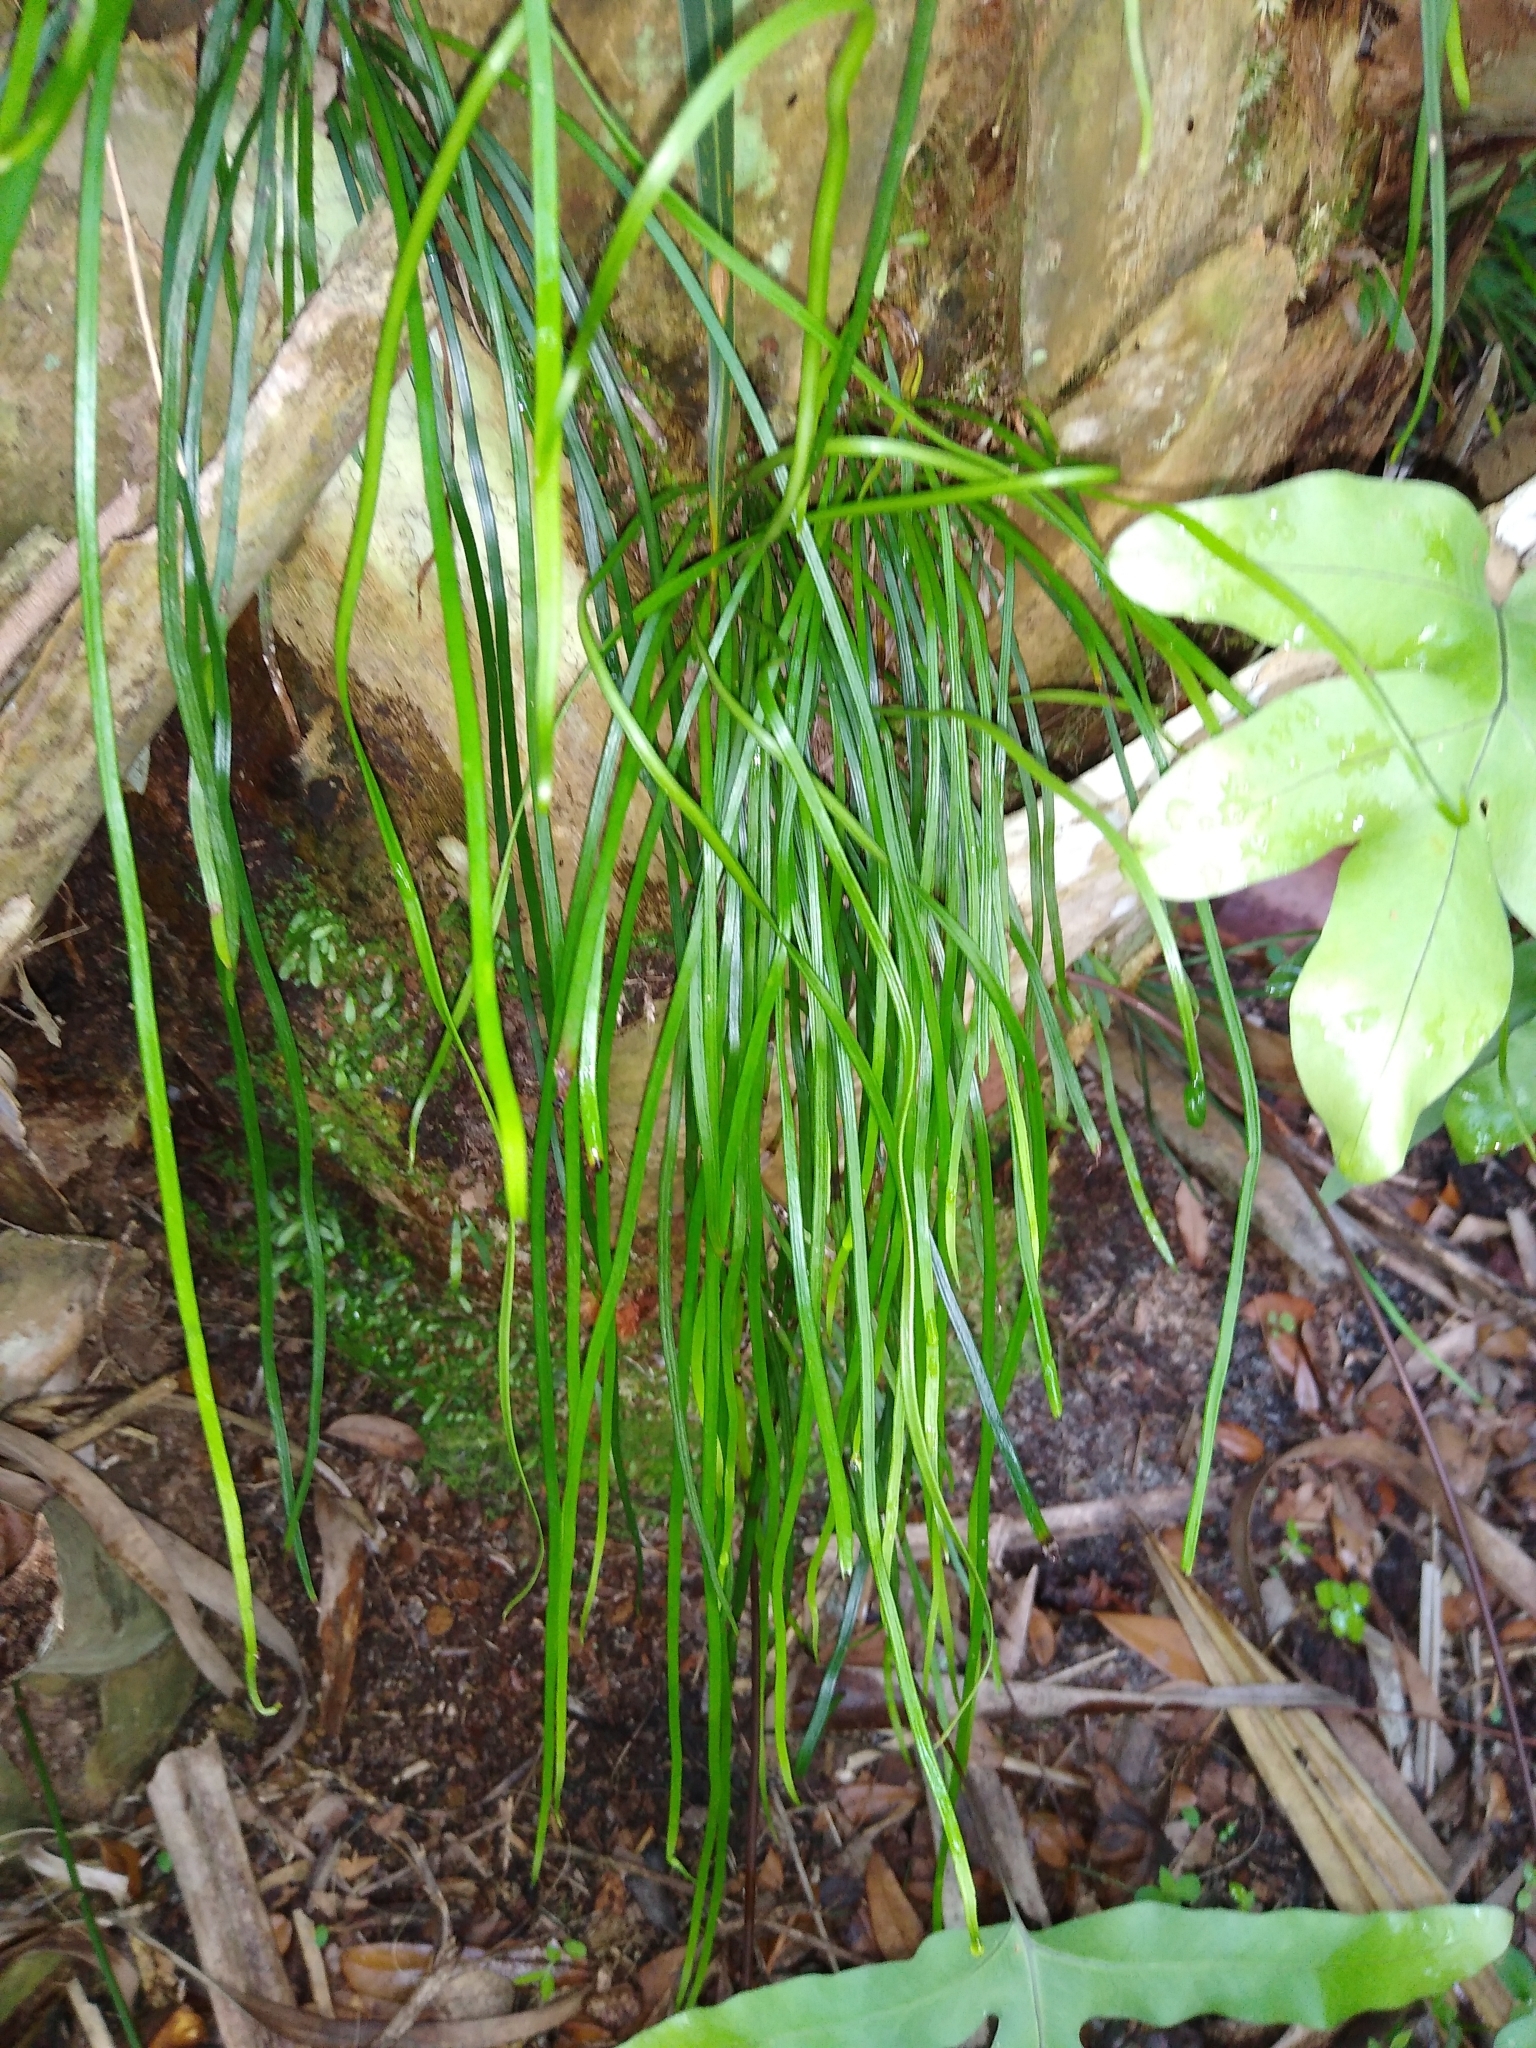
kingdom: Plantae
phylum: Tracheophyta
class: Polypodiopsida
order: Polypodiales
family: Pteridaceae
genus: Vittaria
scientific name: Vittaria lineata
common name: Shoestring fern
